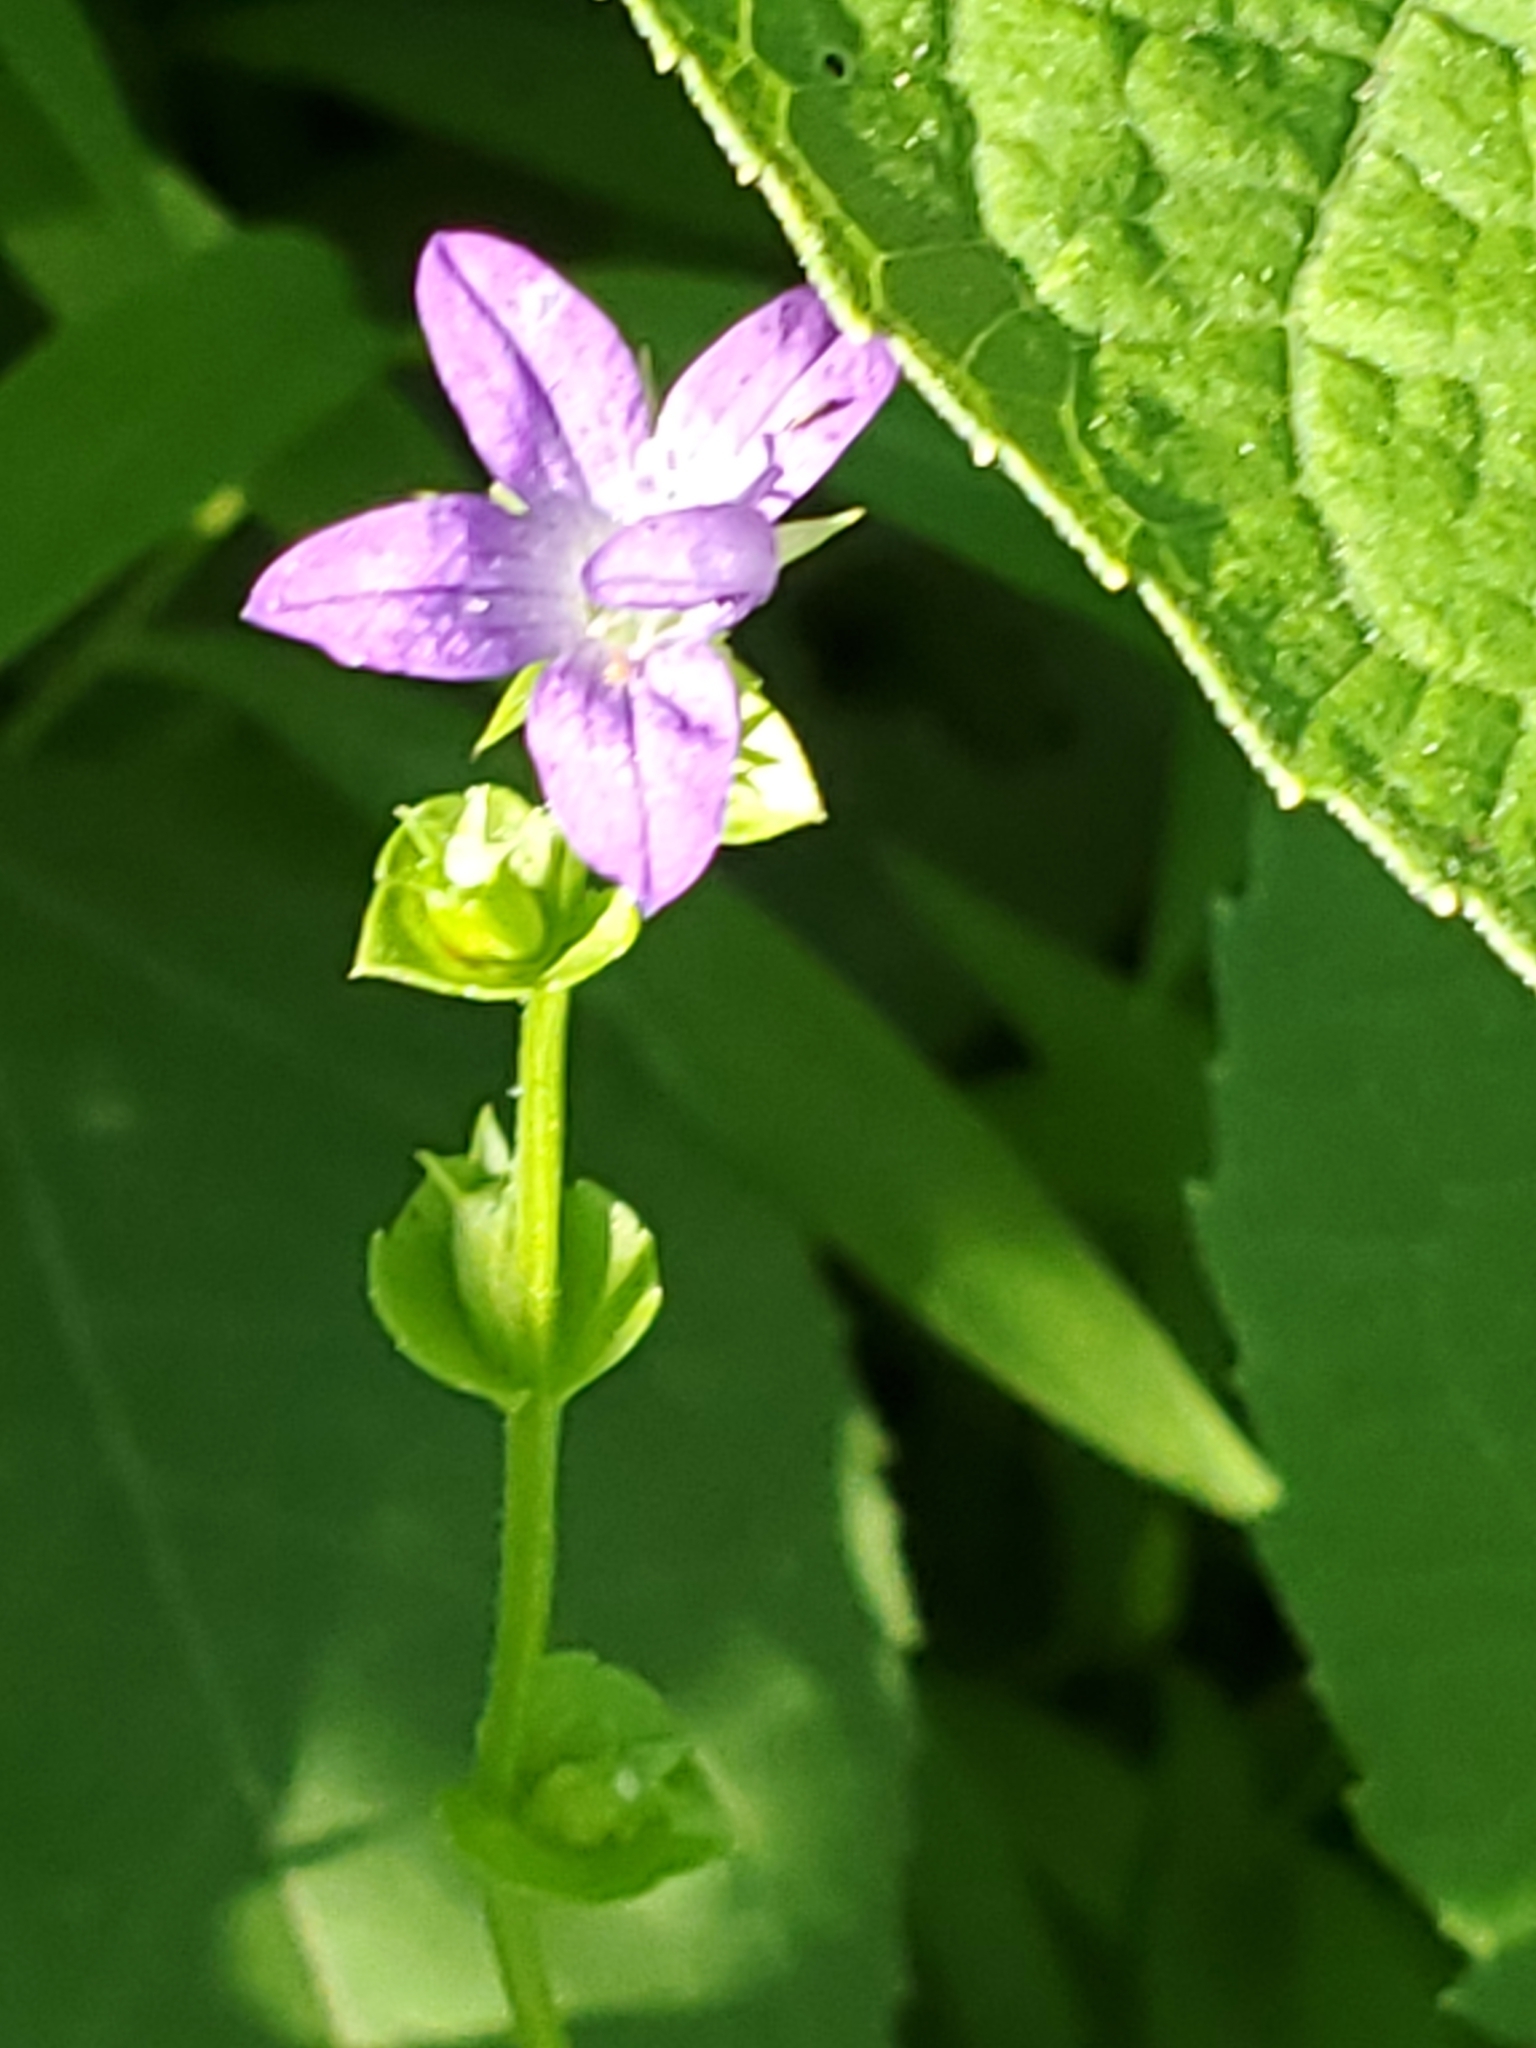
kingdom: Plantae
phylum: Tracheophyta
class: Magnoliopsida
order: Asterales
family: Campanulaceae
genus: Triodanis
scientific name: Triodanis perfoliata
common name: Clasping venus' looking-glass
